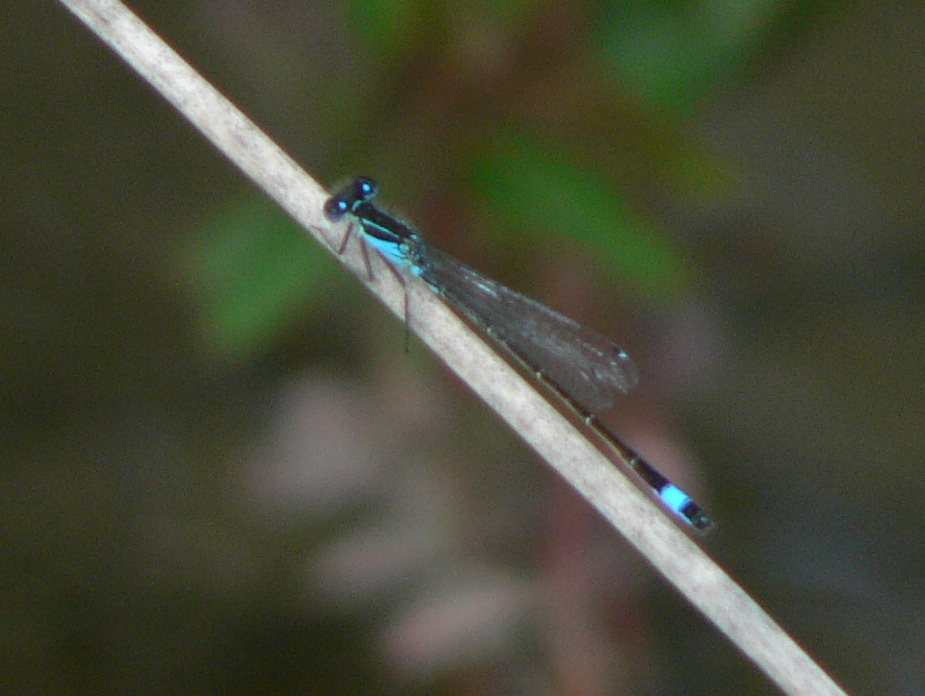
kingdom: Animalia
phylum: Arthropoda
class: Insecta
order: Odonata
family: Coenagrionidae
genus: Ischnura
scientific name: Ischnura elegans
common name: Blue-tailed damselfly
